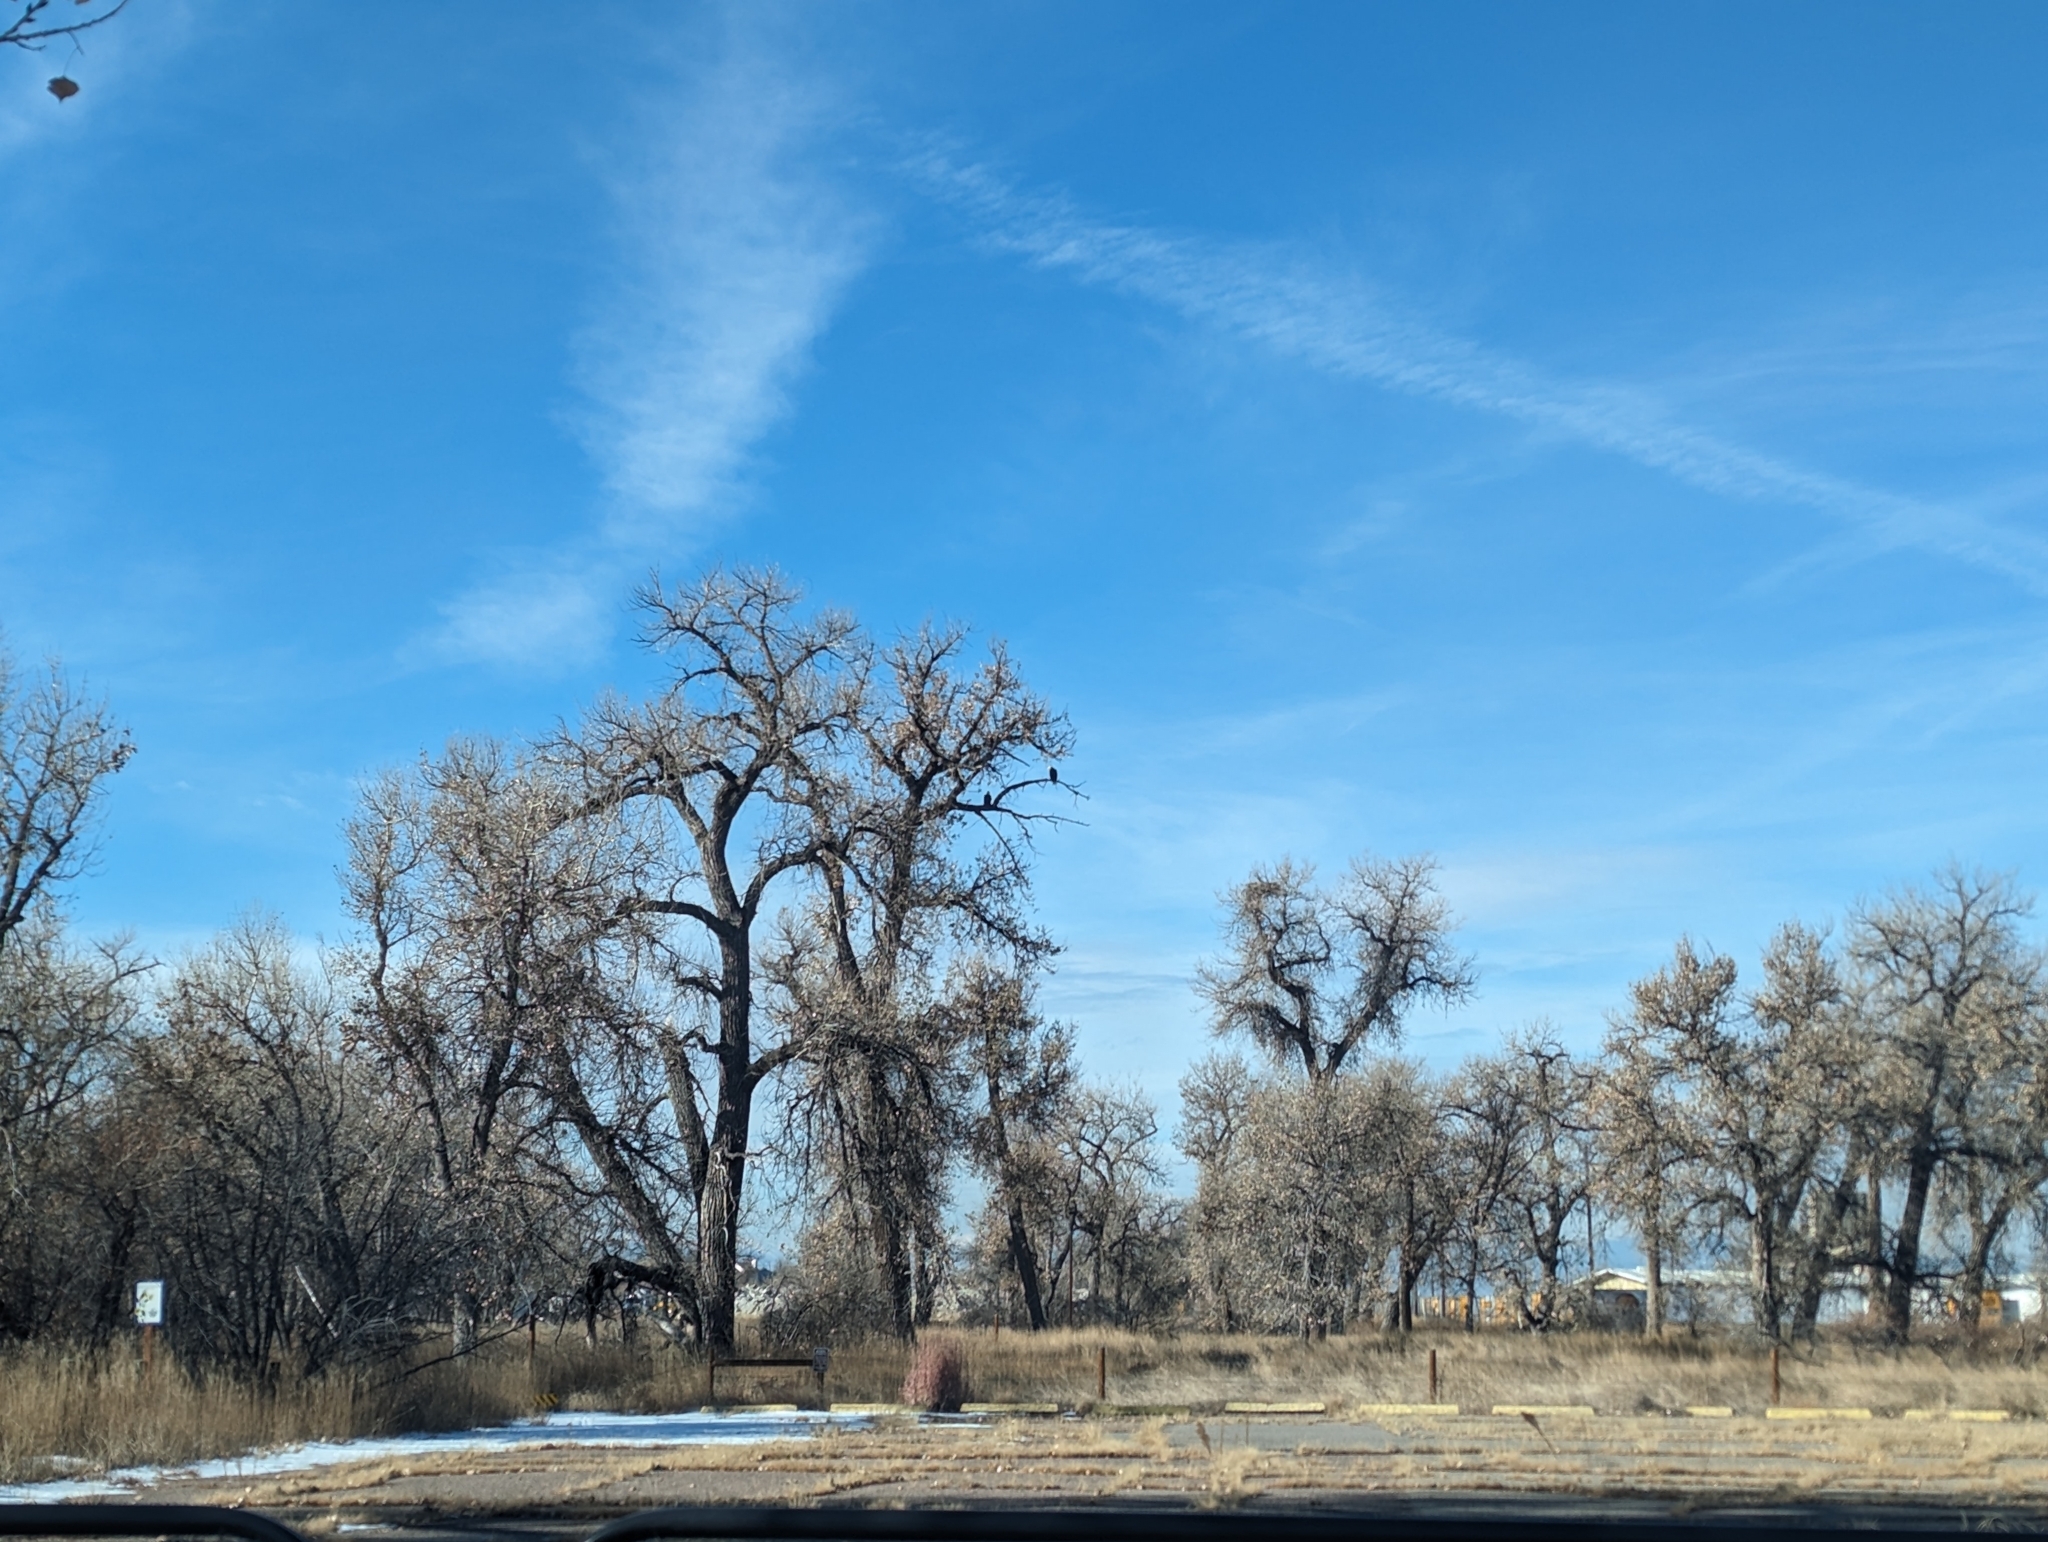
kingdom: Animalia
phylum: Chordata
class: Aves
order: Accipitriformes
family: Accipitridae
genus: Haliaeetus
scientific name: Haliaeetus leucocephalus
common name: Bald eagle
